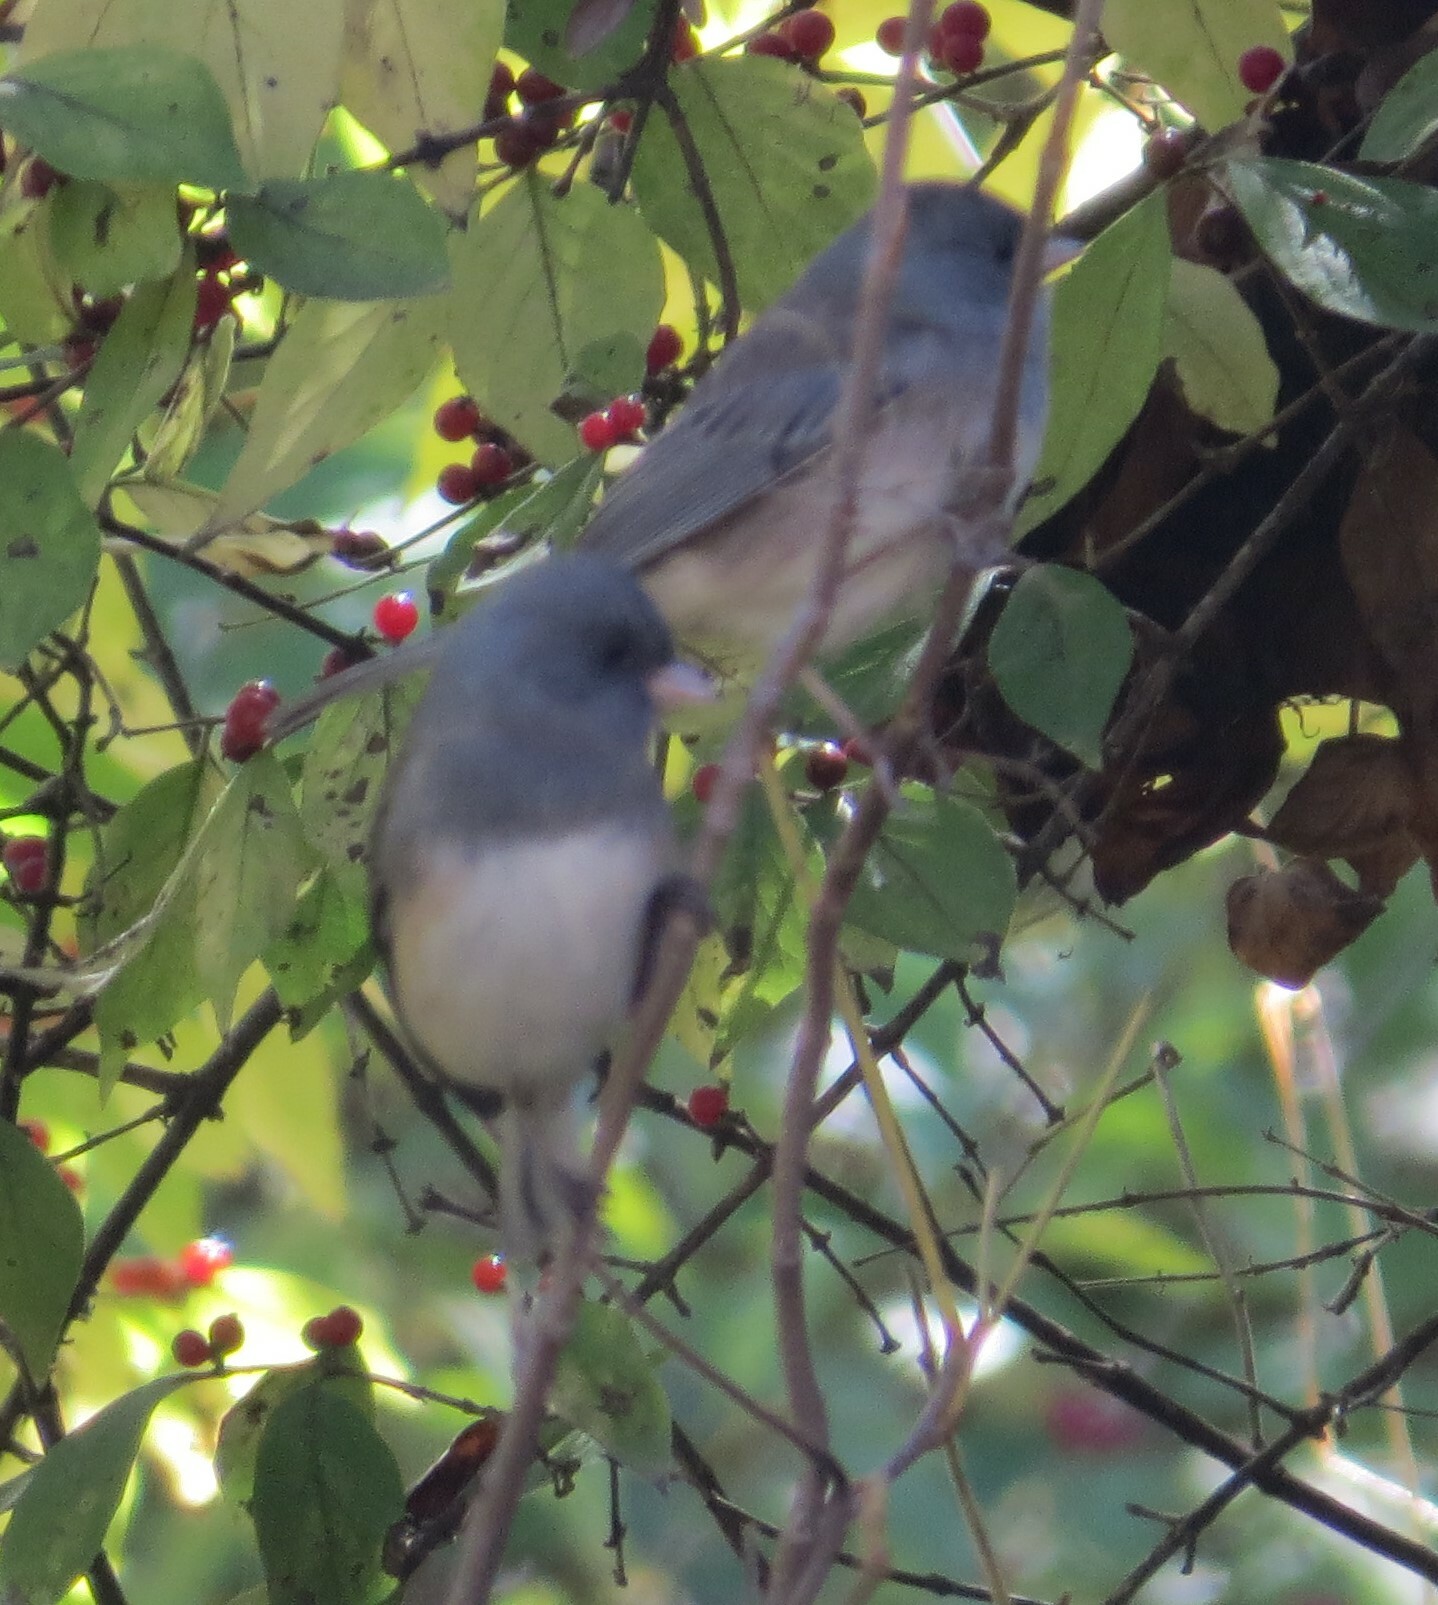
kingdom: Animalia
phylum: Chordata
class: Aves
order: Passeriformes
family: Passerellidae
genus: Junco
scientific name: Junco hyemalis
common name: Dark-eyed junco
